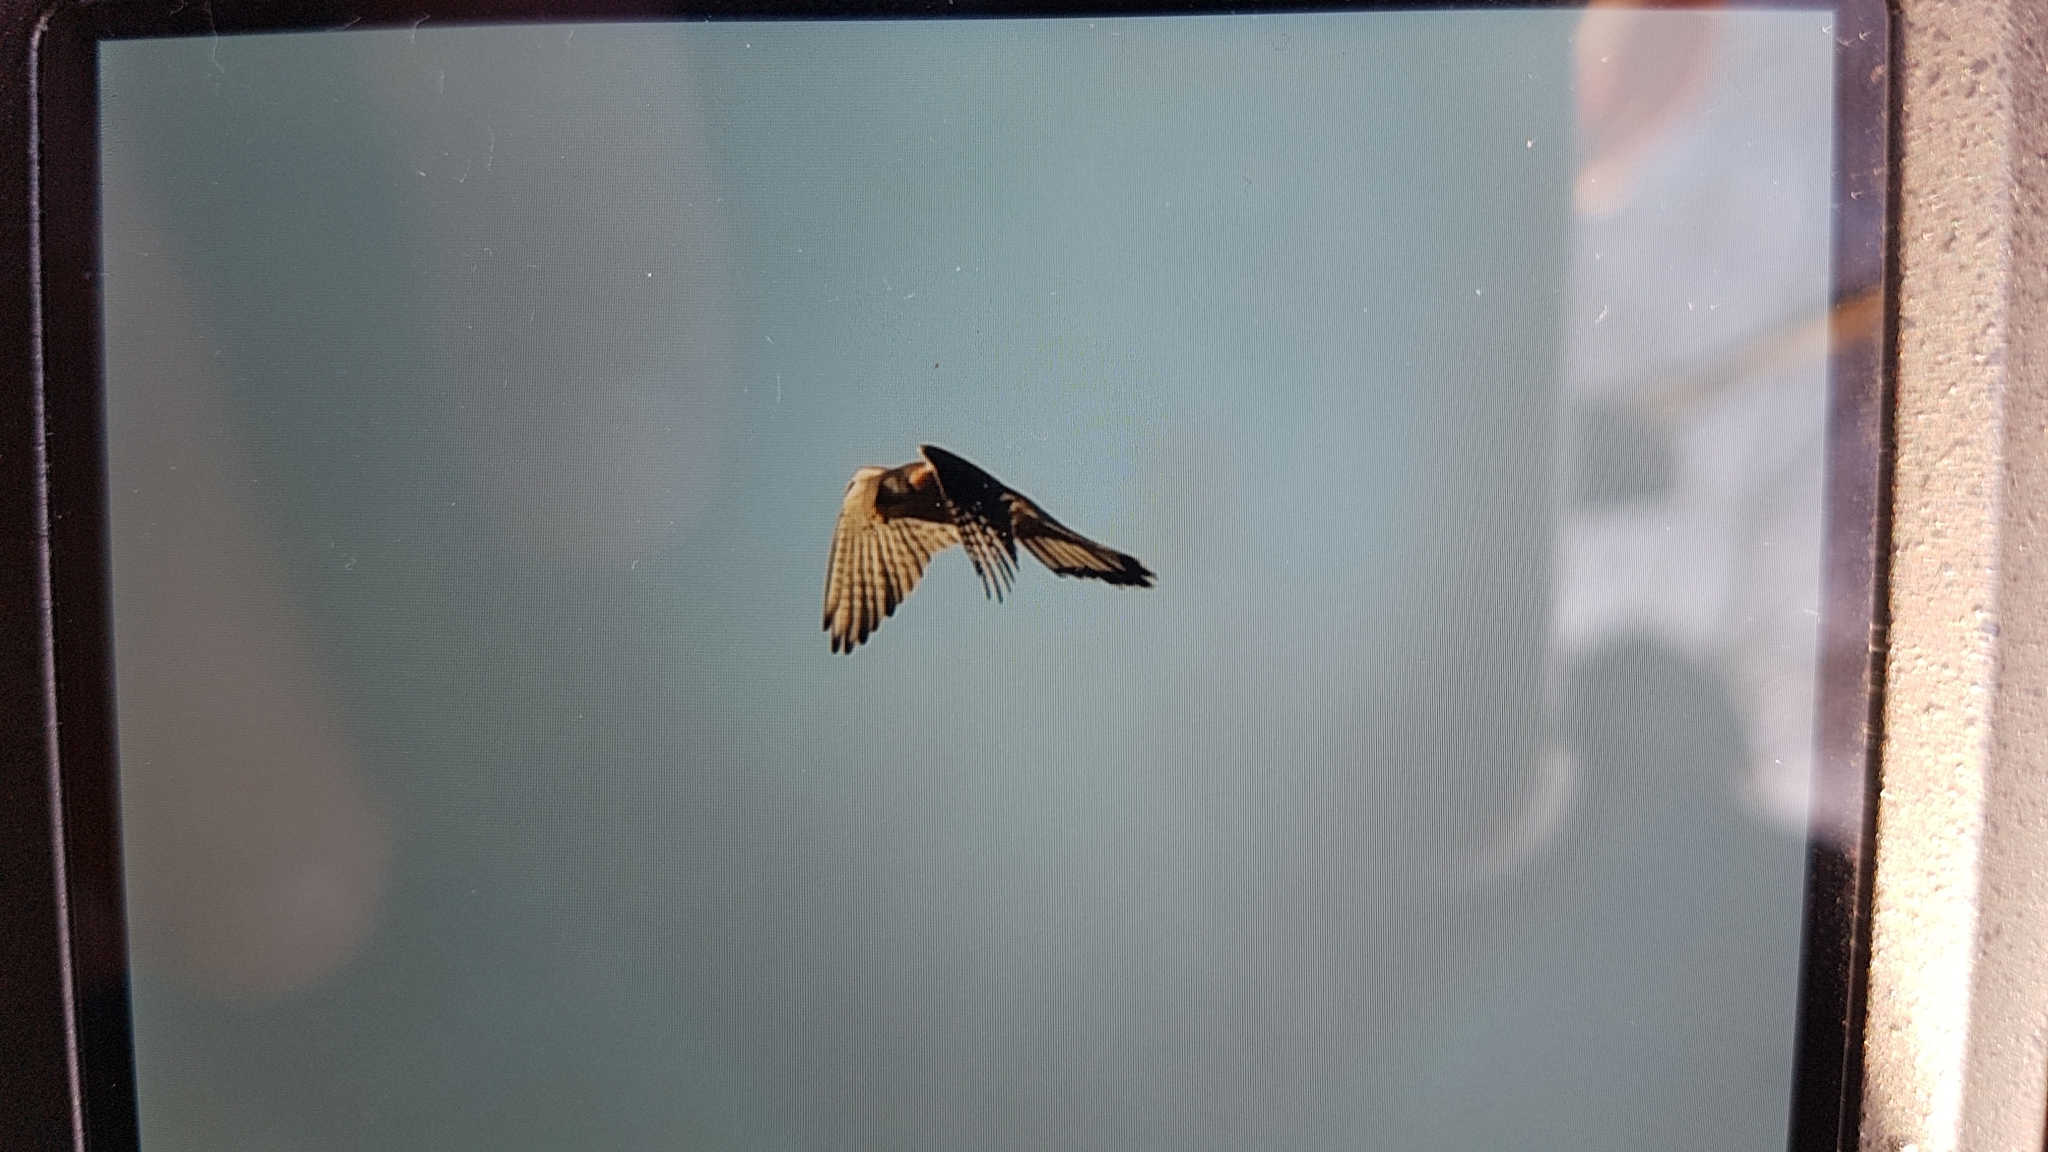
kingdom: Animalia
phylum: Chordata
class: Aves
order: Falconiformes
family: Falconidae
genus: Falco
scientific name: Falco tinnunculus
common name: Common kestrel
